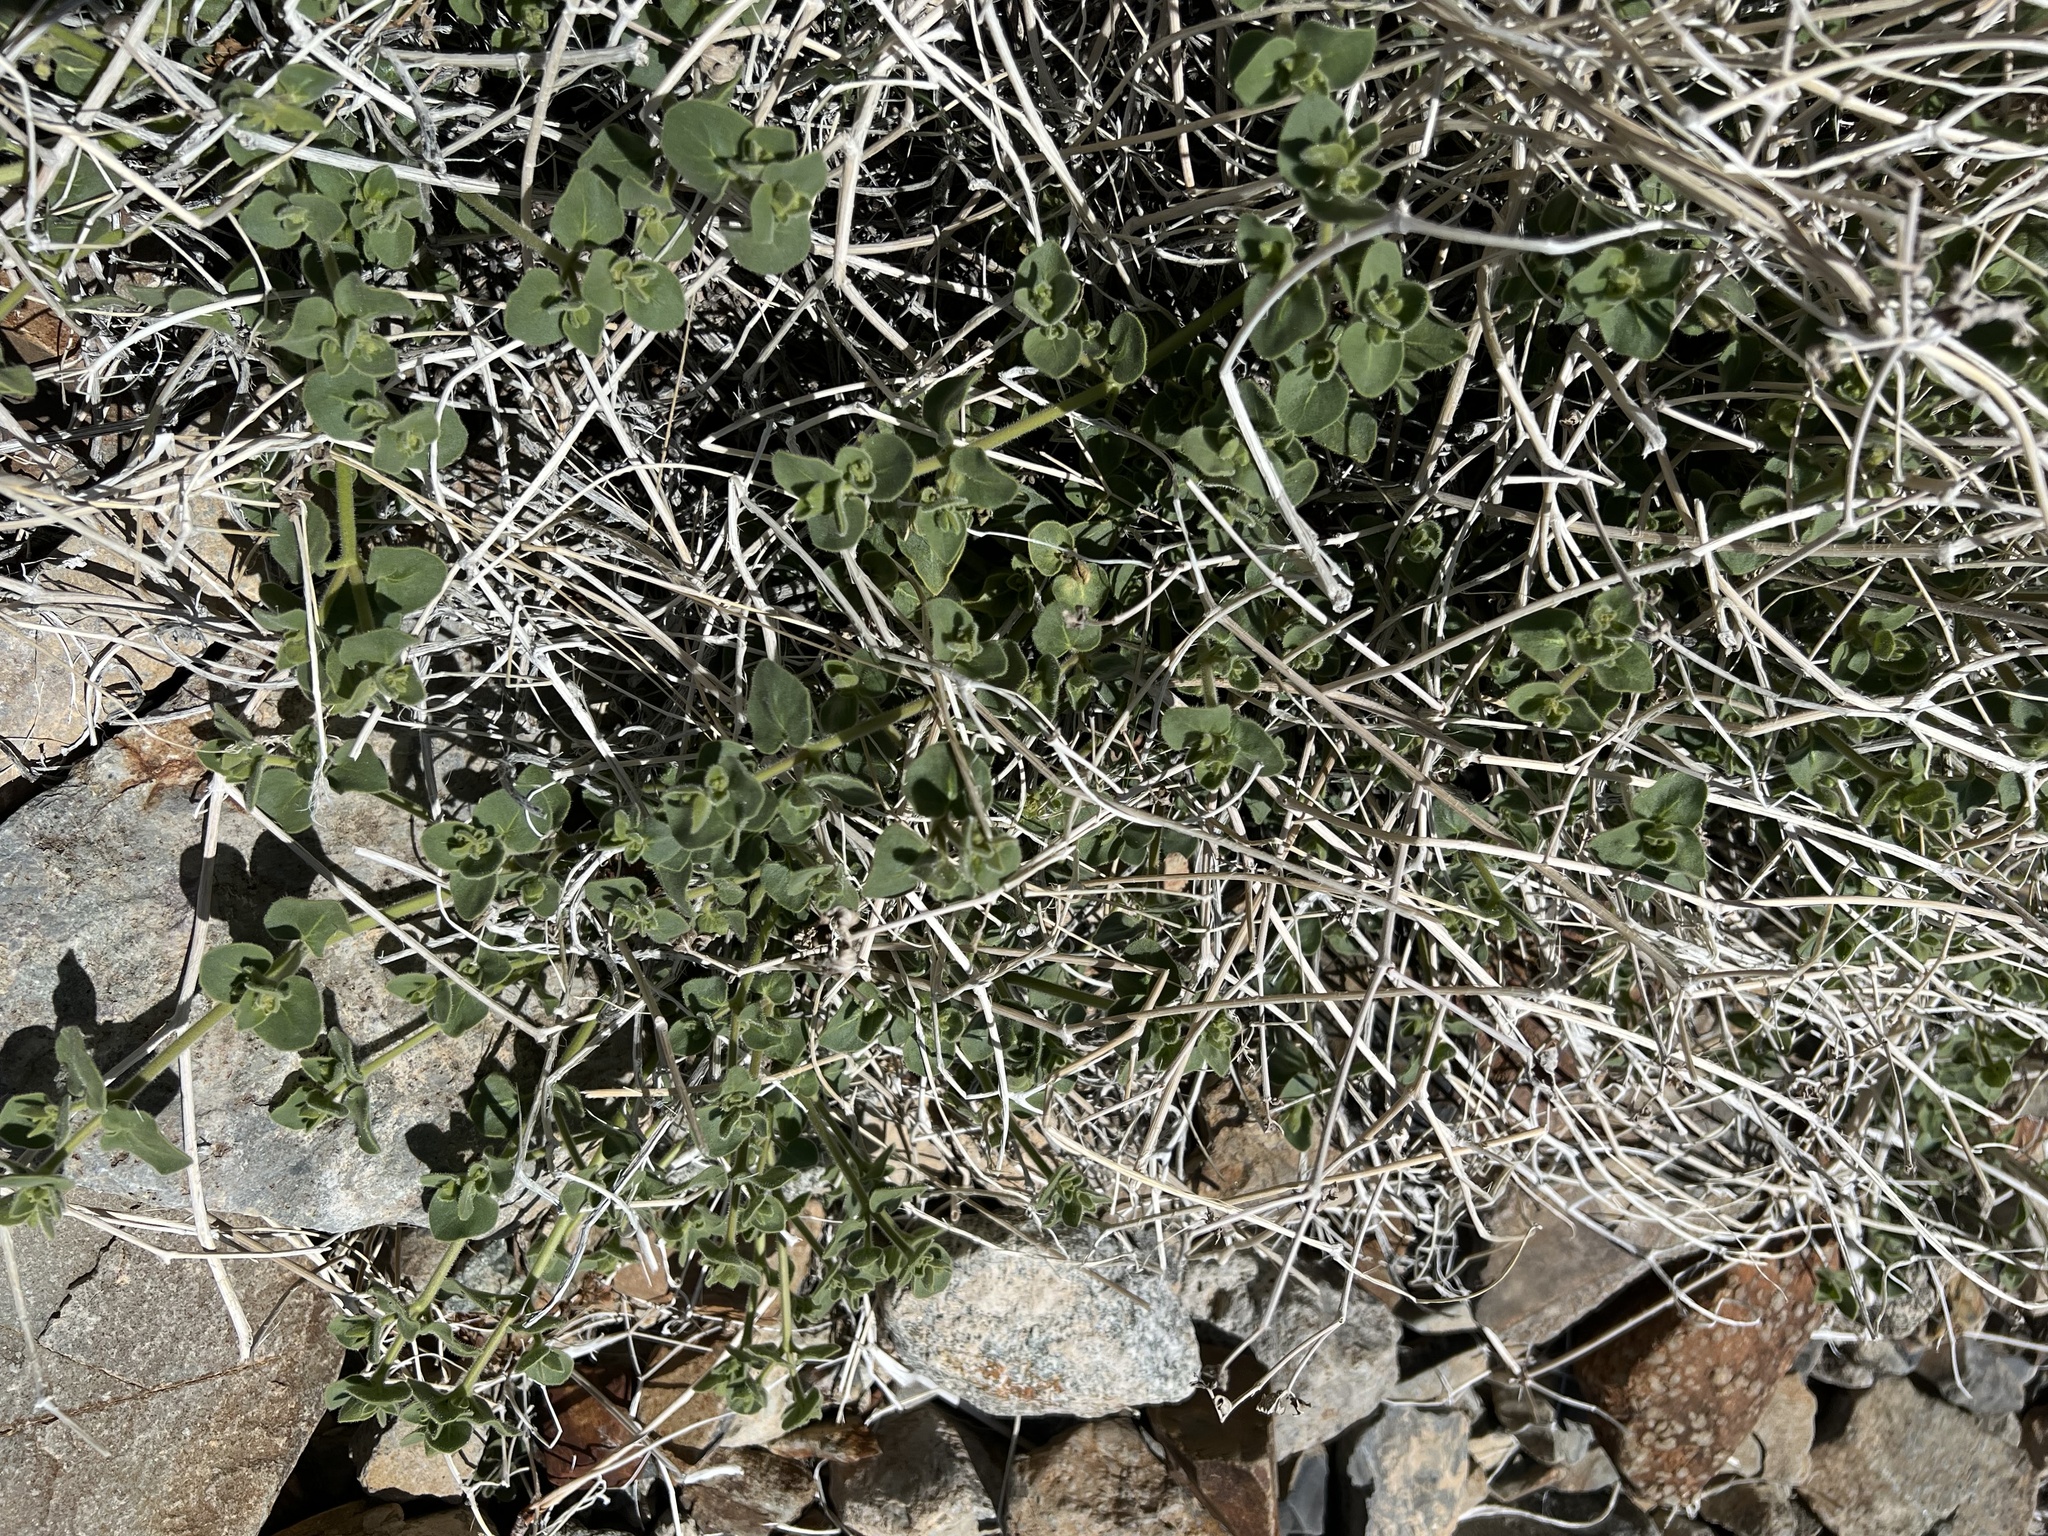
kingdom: Plantae
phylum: Tracheophyta
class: Magnoliopsida
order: Caryophyllales
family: Nyctaginaceae
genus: Mirabilis
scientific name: Mirabilis laevis
